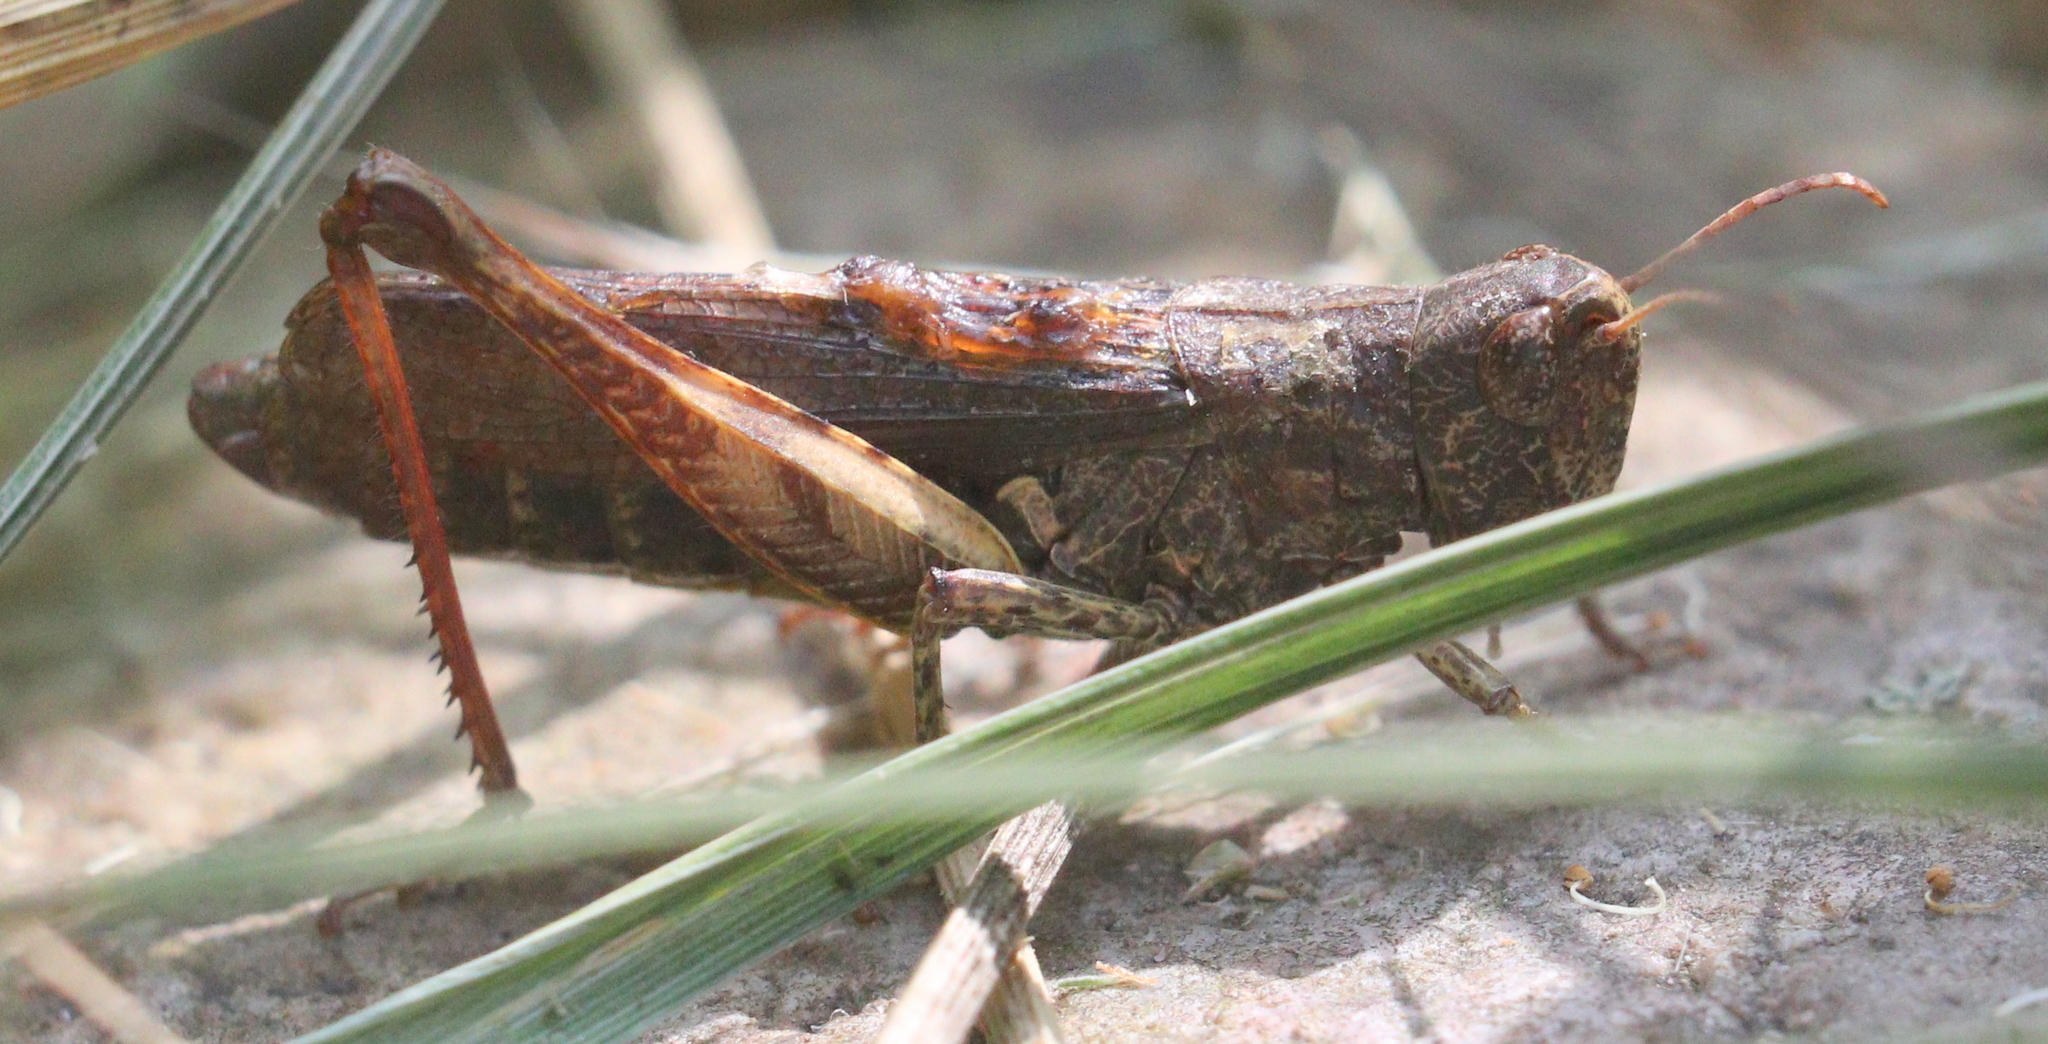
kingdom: Animalia
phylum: Arthropoda
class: Insecta
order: Orthoptera
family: Acrididae
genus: Gomphocerippus
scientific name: Gomphocerippus rufus
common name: Rufous grasshopper
